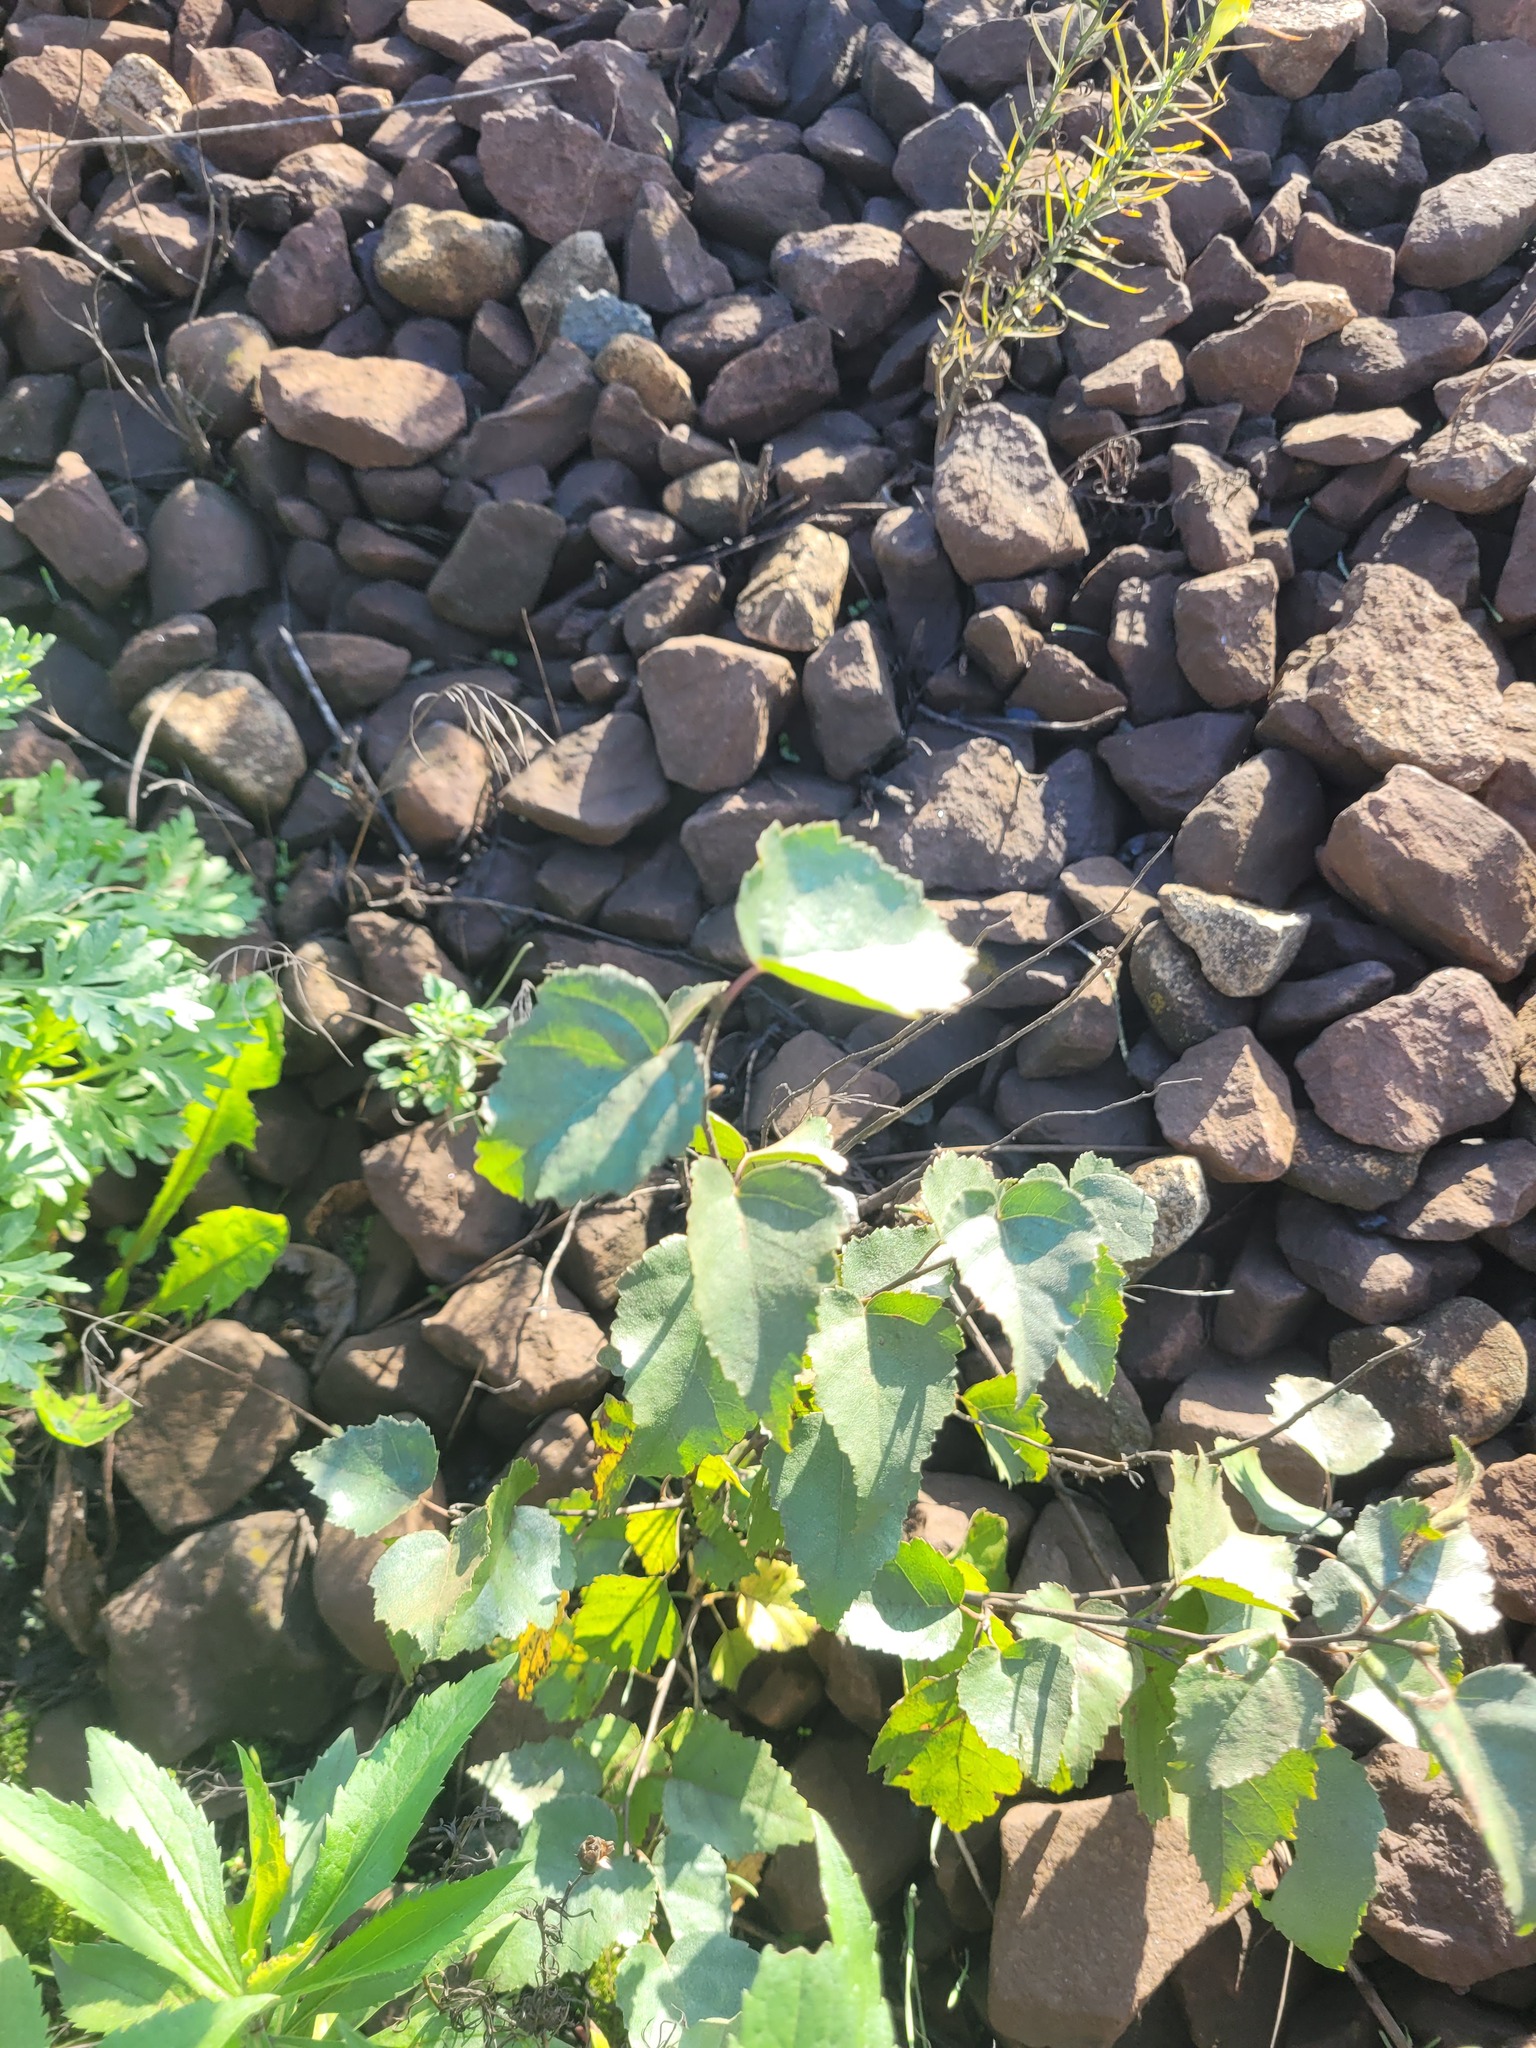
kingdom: Plantae
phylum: Tracheophyta
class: Magnoliopsida
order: Fagales
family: Betulaceae
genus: Betula
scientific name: Betula pendula
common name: Silver birch
